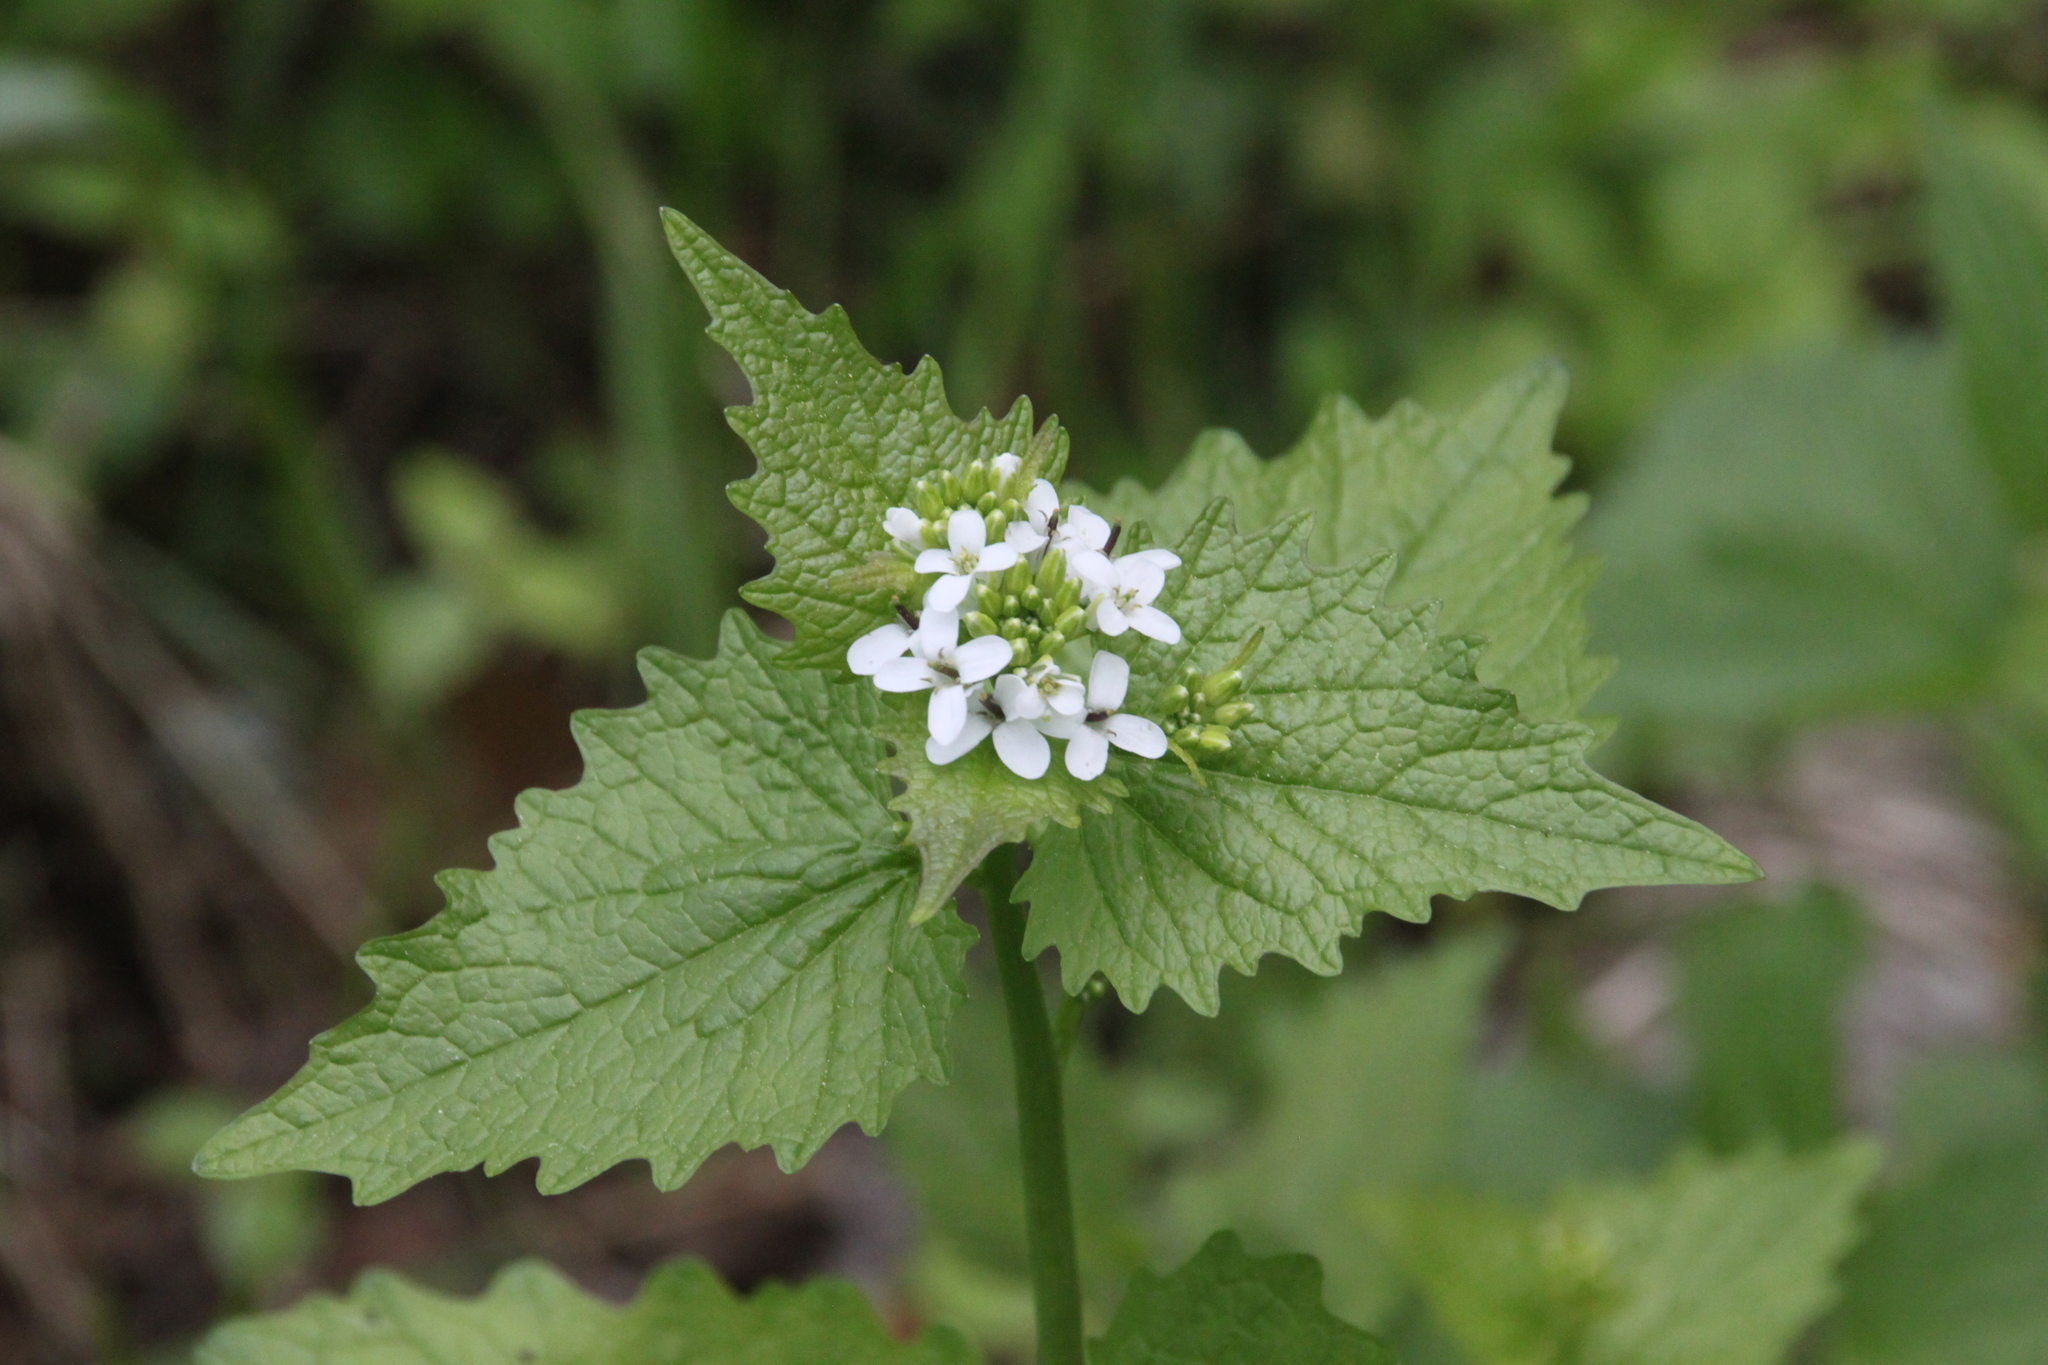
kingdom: Plantae
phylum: Tracheophyta
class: Magnoliopsida
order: Brassicales
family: Brassicaceae
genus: Alliaria
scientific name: Alliaria petiolata
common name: Garlic mustard
